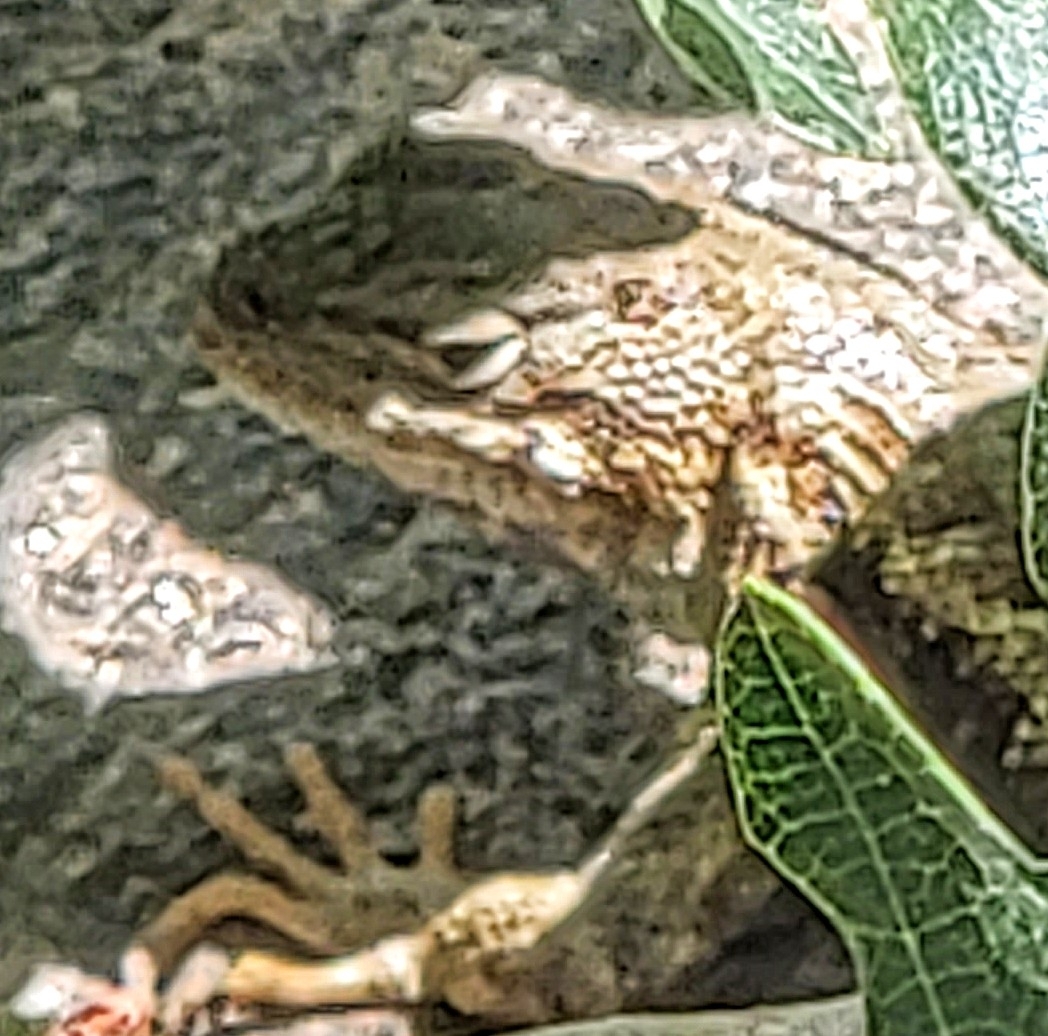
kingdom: Animalia
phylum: Chordata
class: Squamata
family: Phrynosomatidae
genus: Sceloporus
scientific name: Sceloporus graciosus
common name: Sagebrush lizard
